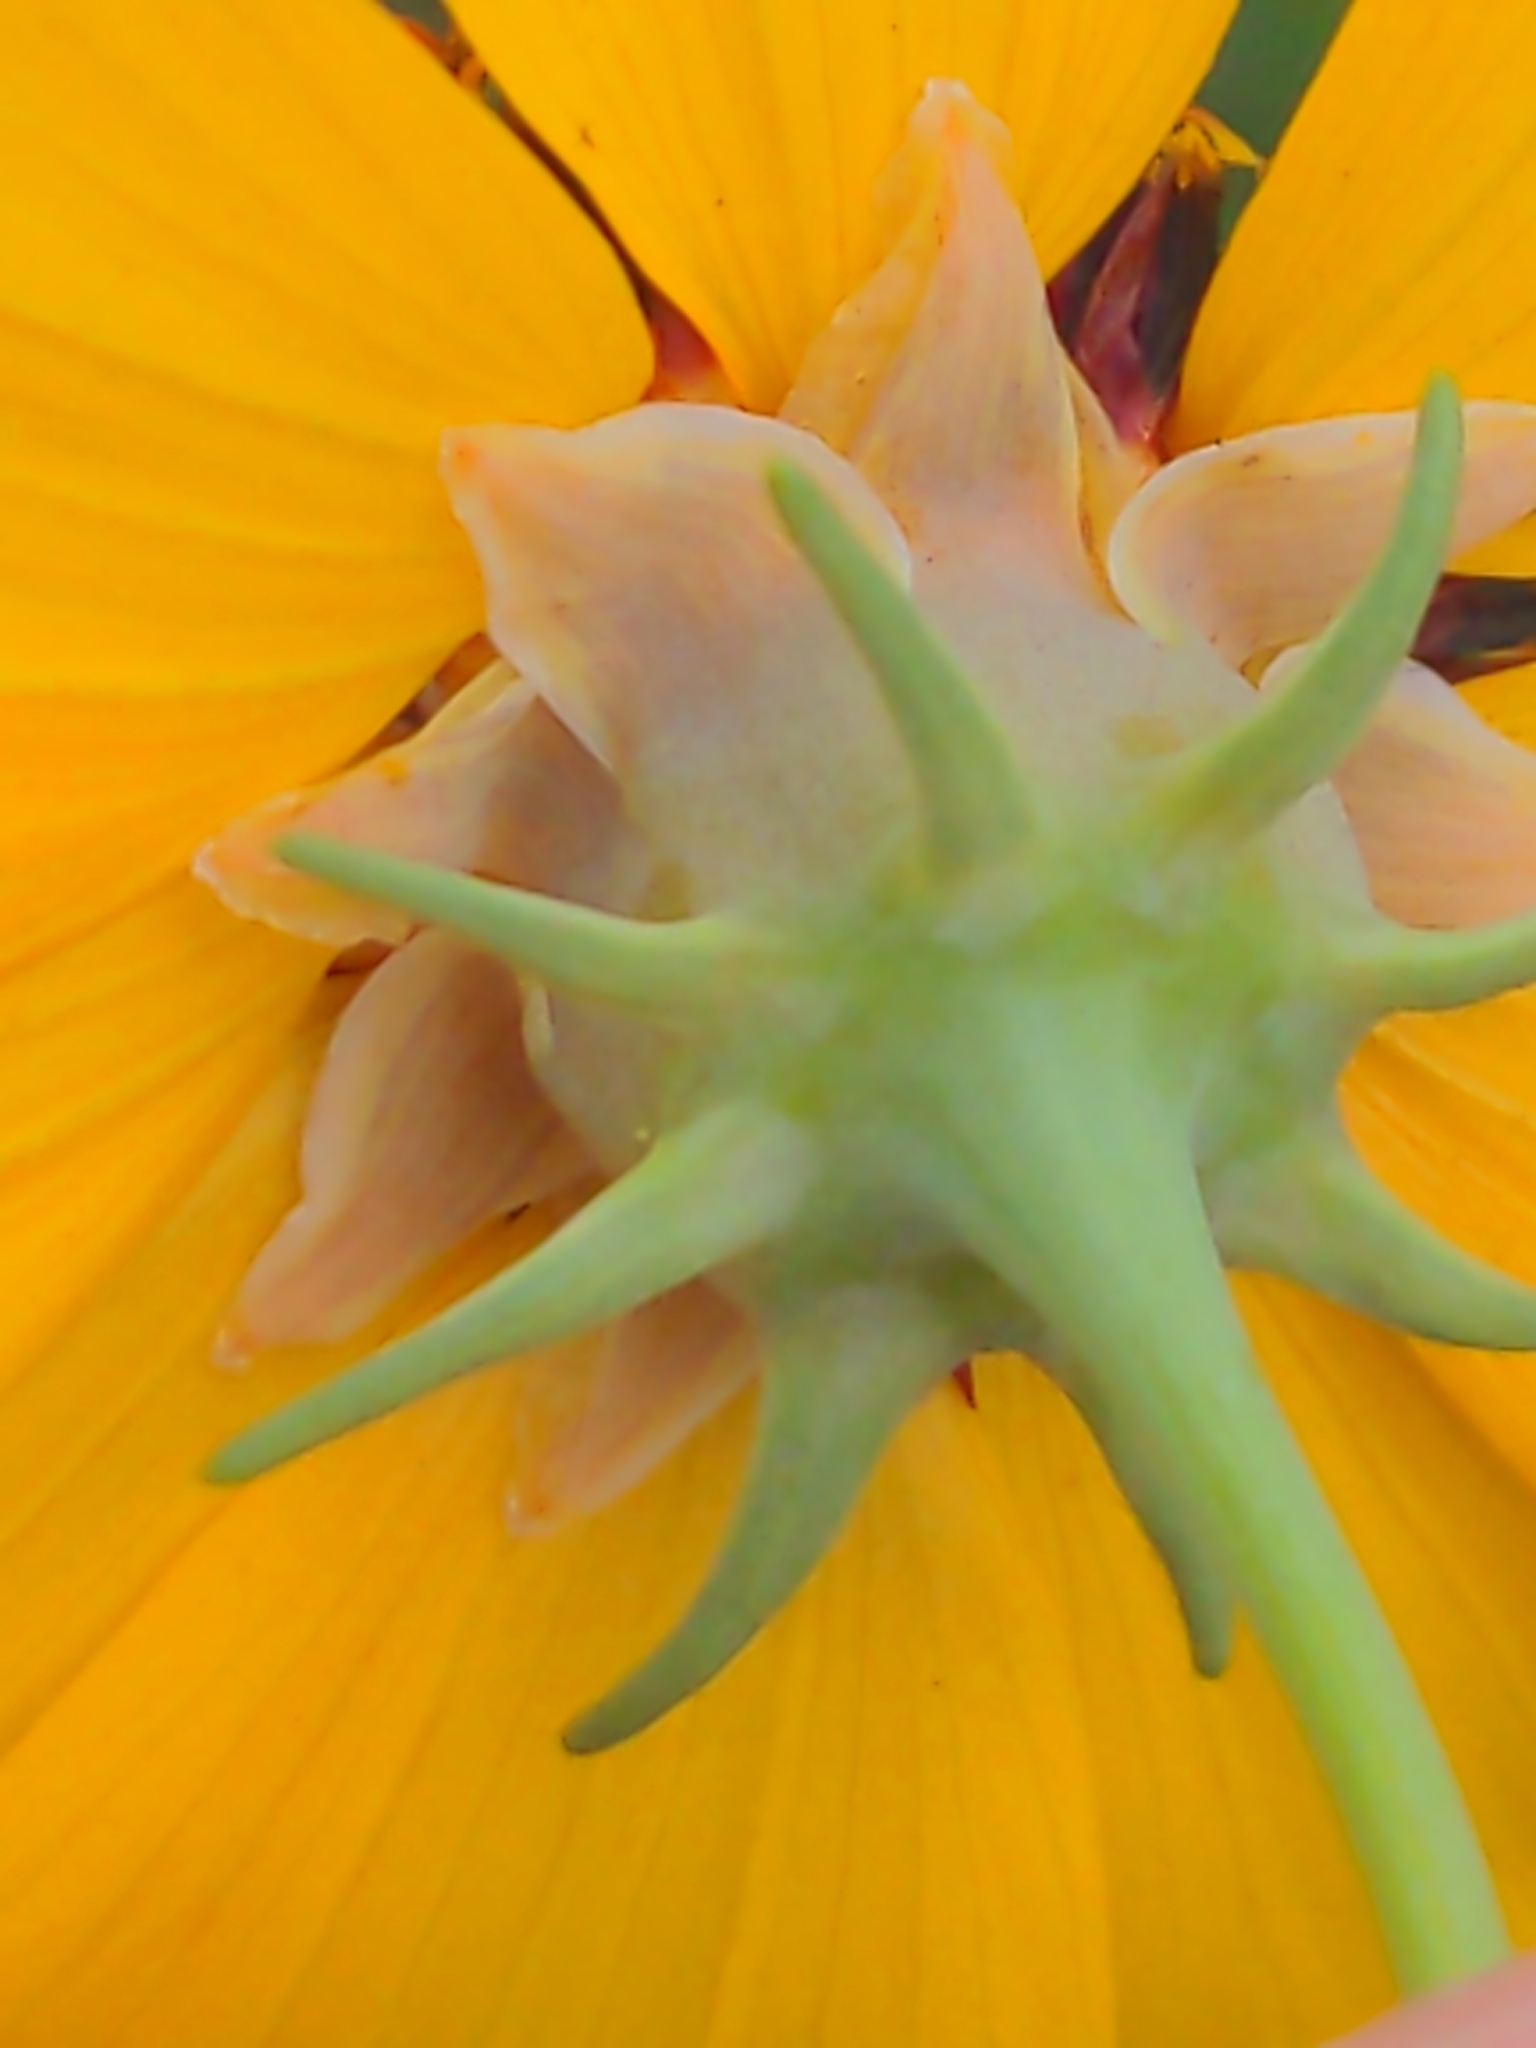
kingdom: Plantae
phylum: Tracheophyta
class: Magnoliopsida
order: Asterales
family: Asteraceae
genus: Thelesperma
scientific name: Thelesperma filifolium
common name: Stiff greenthread
